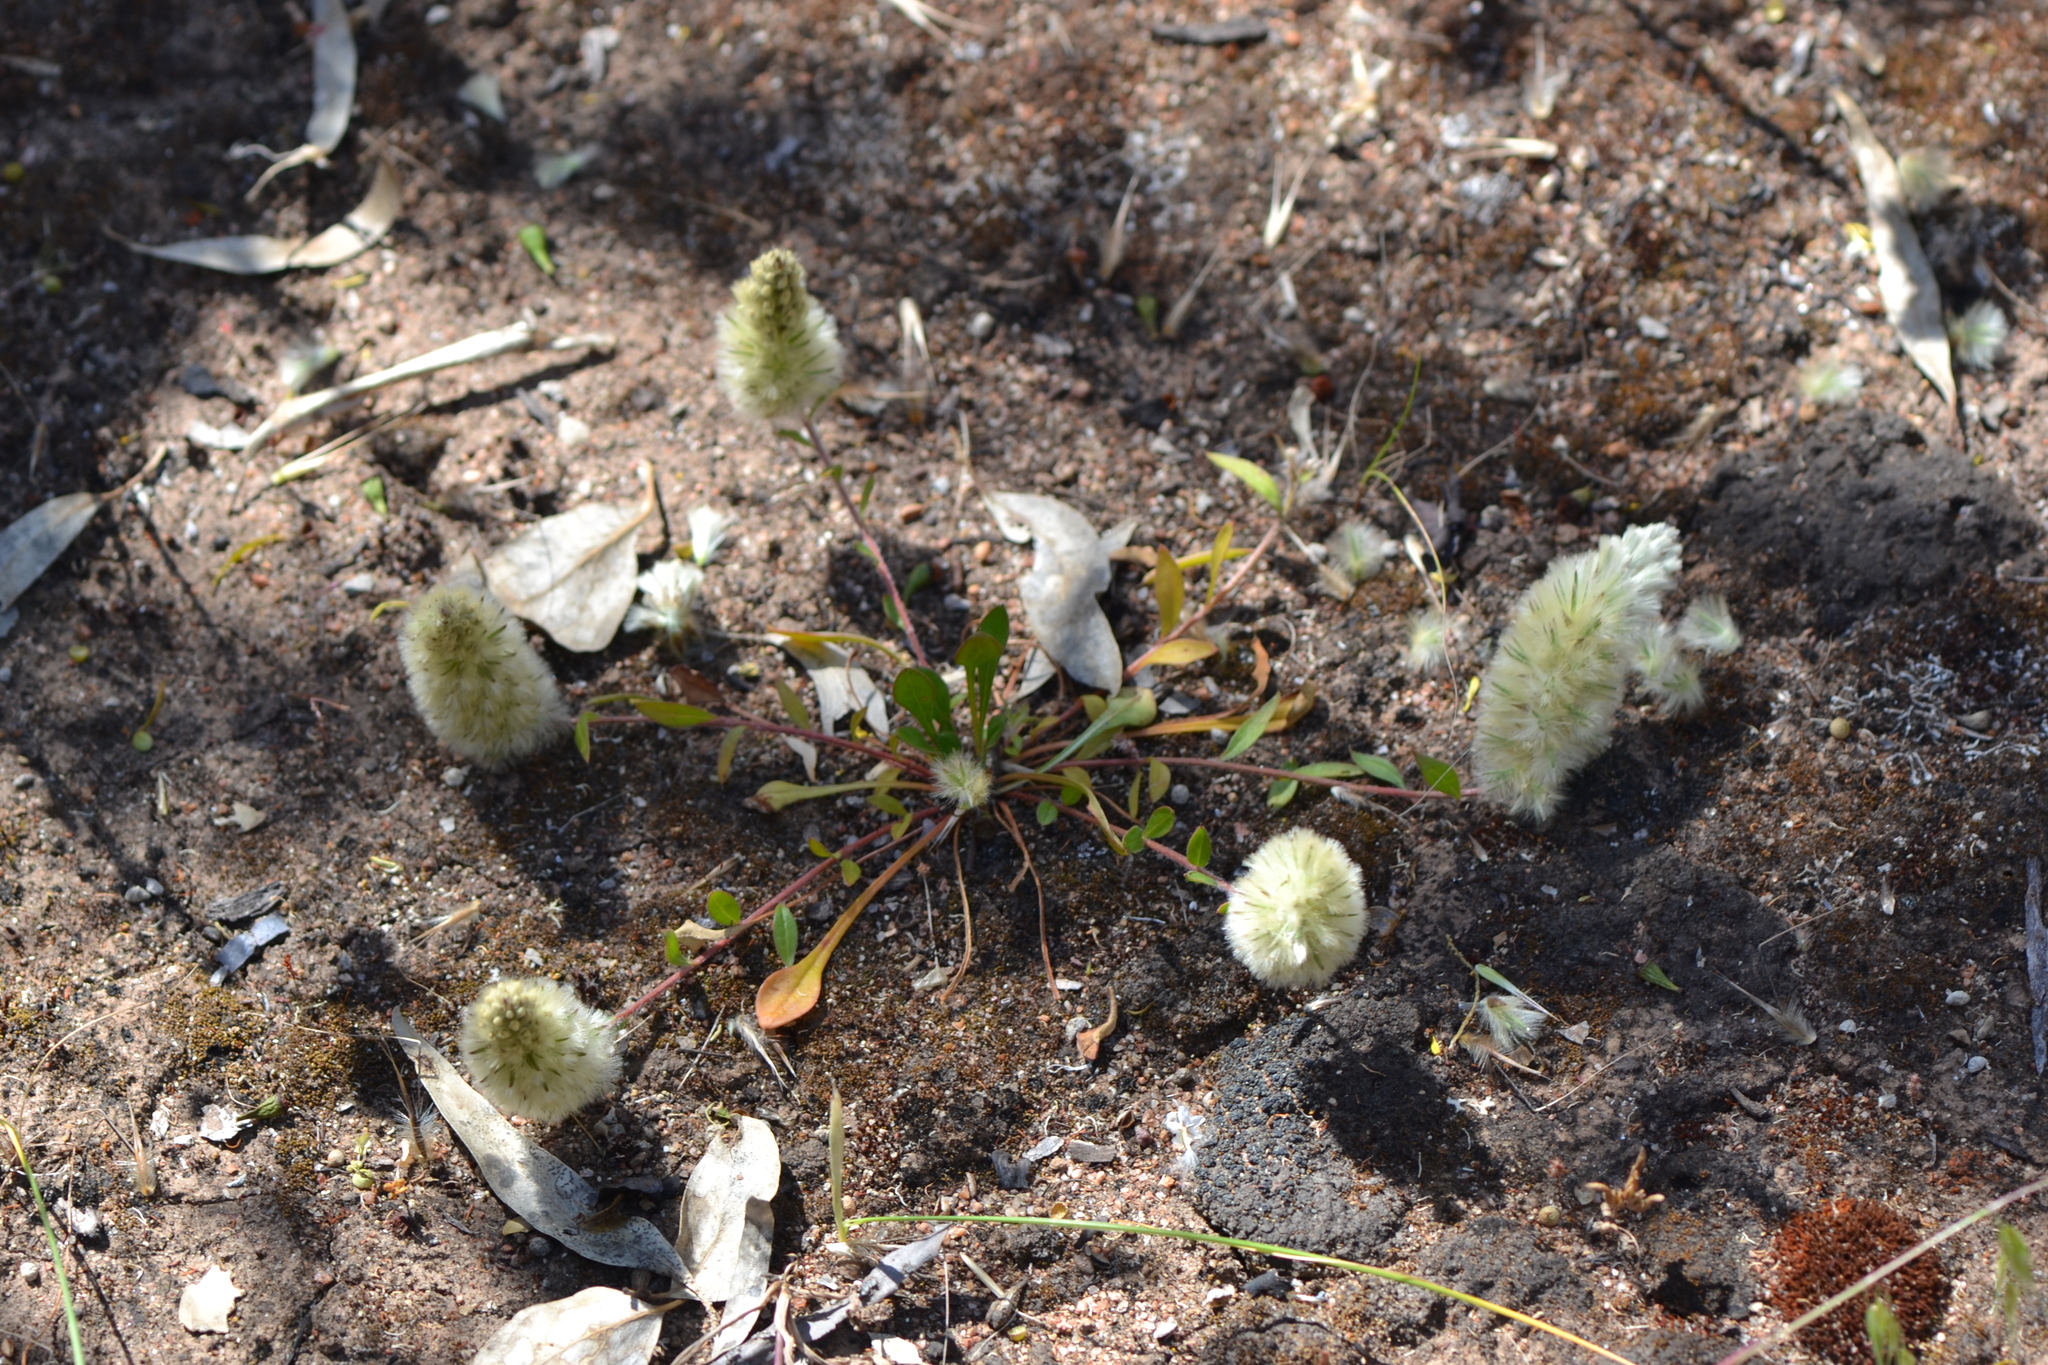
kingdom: Plantae
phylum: Tracheophyta
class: Magnoliopsida
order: Caryophyllales
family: Amaranthaceae
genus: Ptilotus
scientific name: Ptilotus spathulatus
